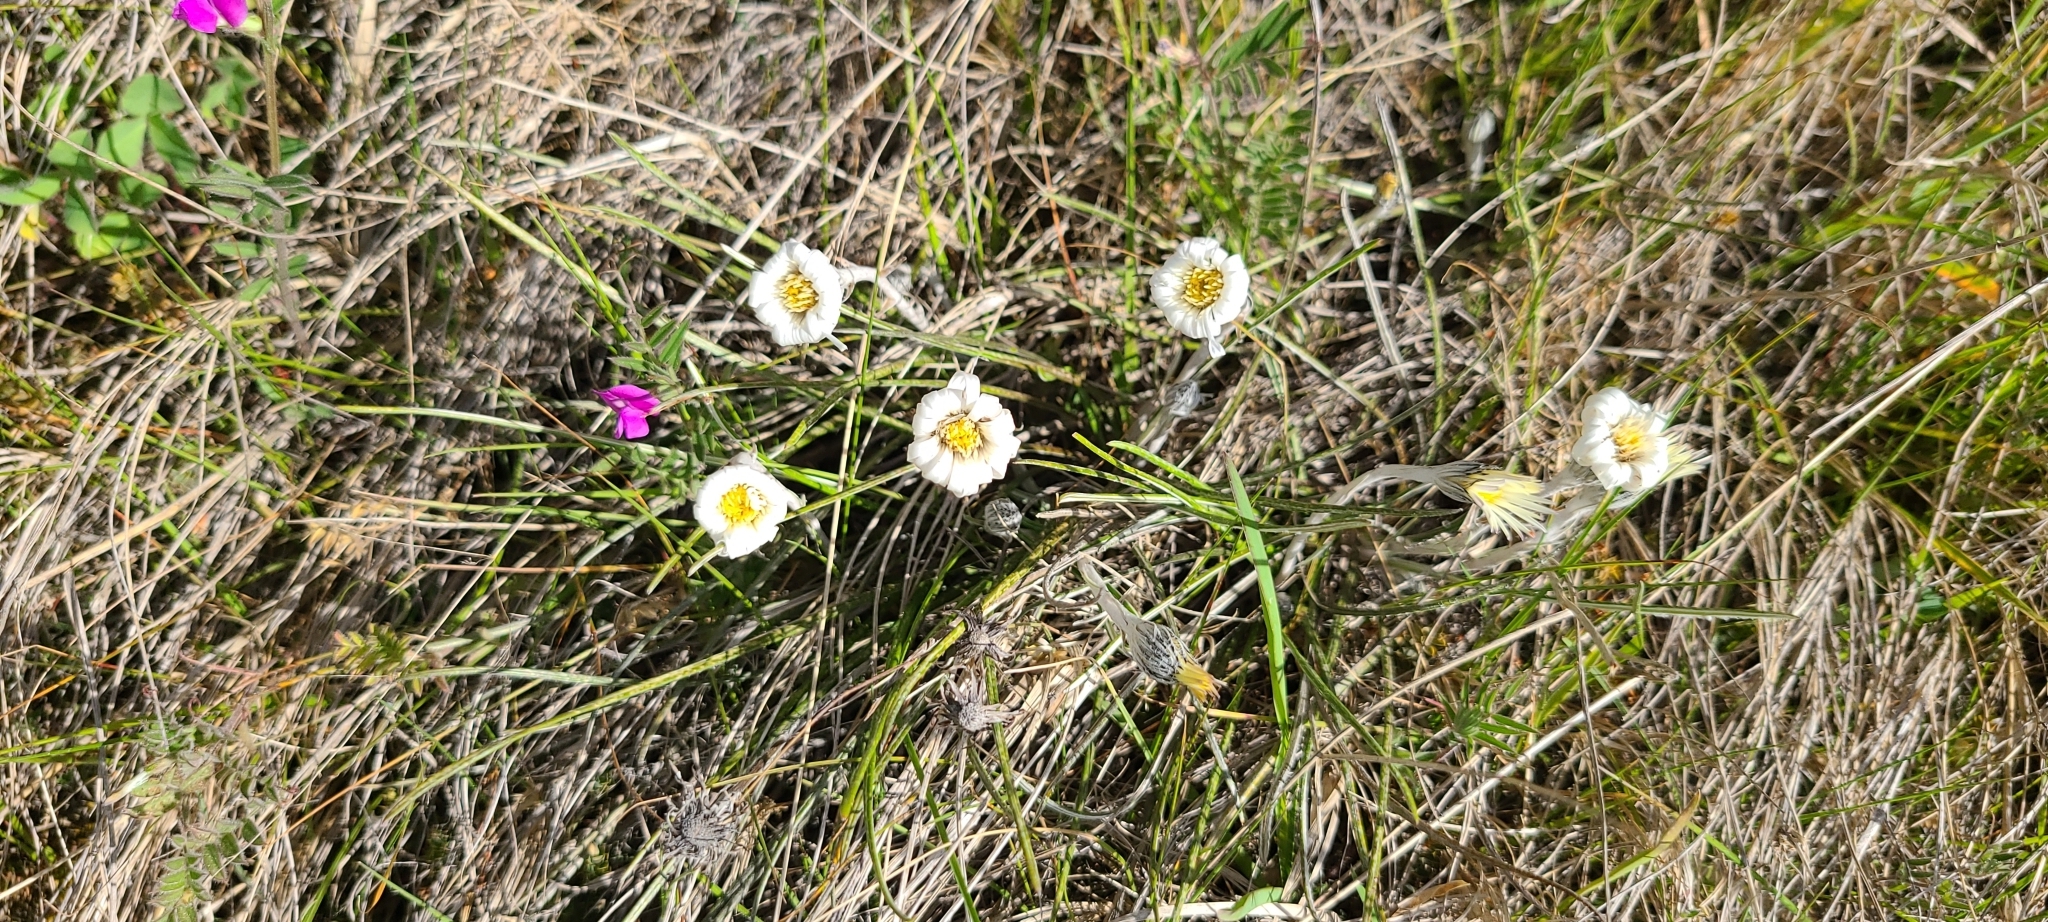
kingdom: Plantae
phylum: Tracheophyta
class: Magnoliopsida
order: Asterales
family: Asteraceae
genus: Celmisia
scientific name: Celmisia gracilenta
